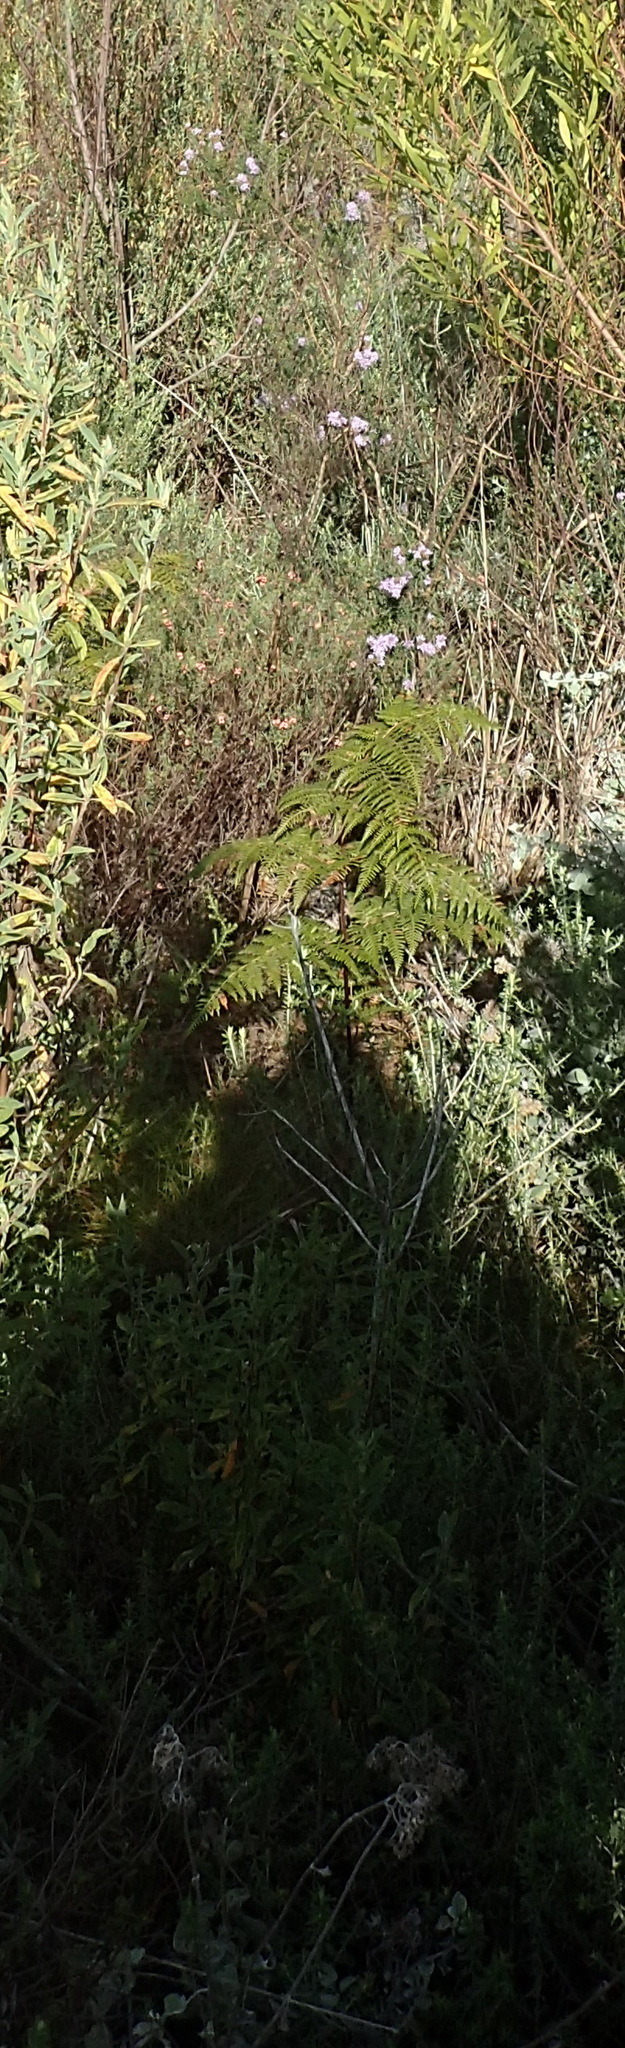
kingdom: Plantae
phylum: Tracheophyta
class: Magnoliopsida
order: Lamiales
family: Scrophulariaceae
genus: Selago
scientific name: Selago villicaulis
